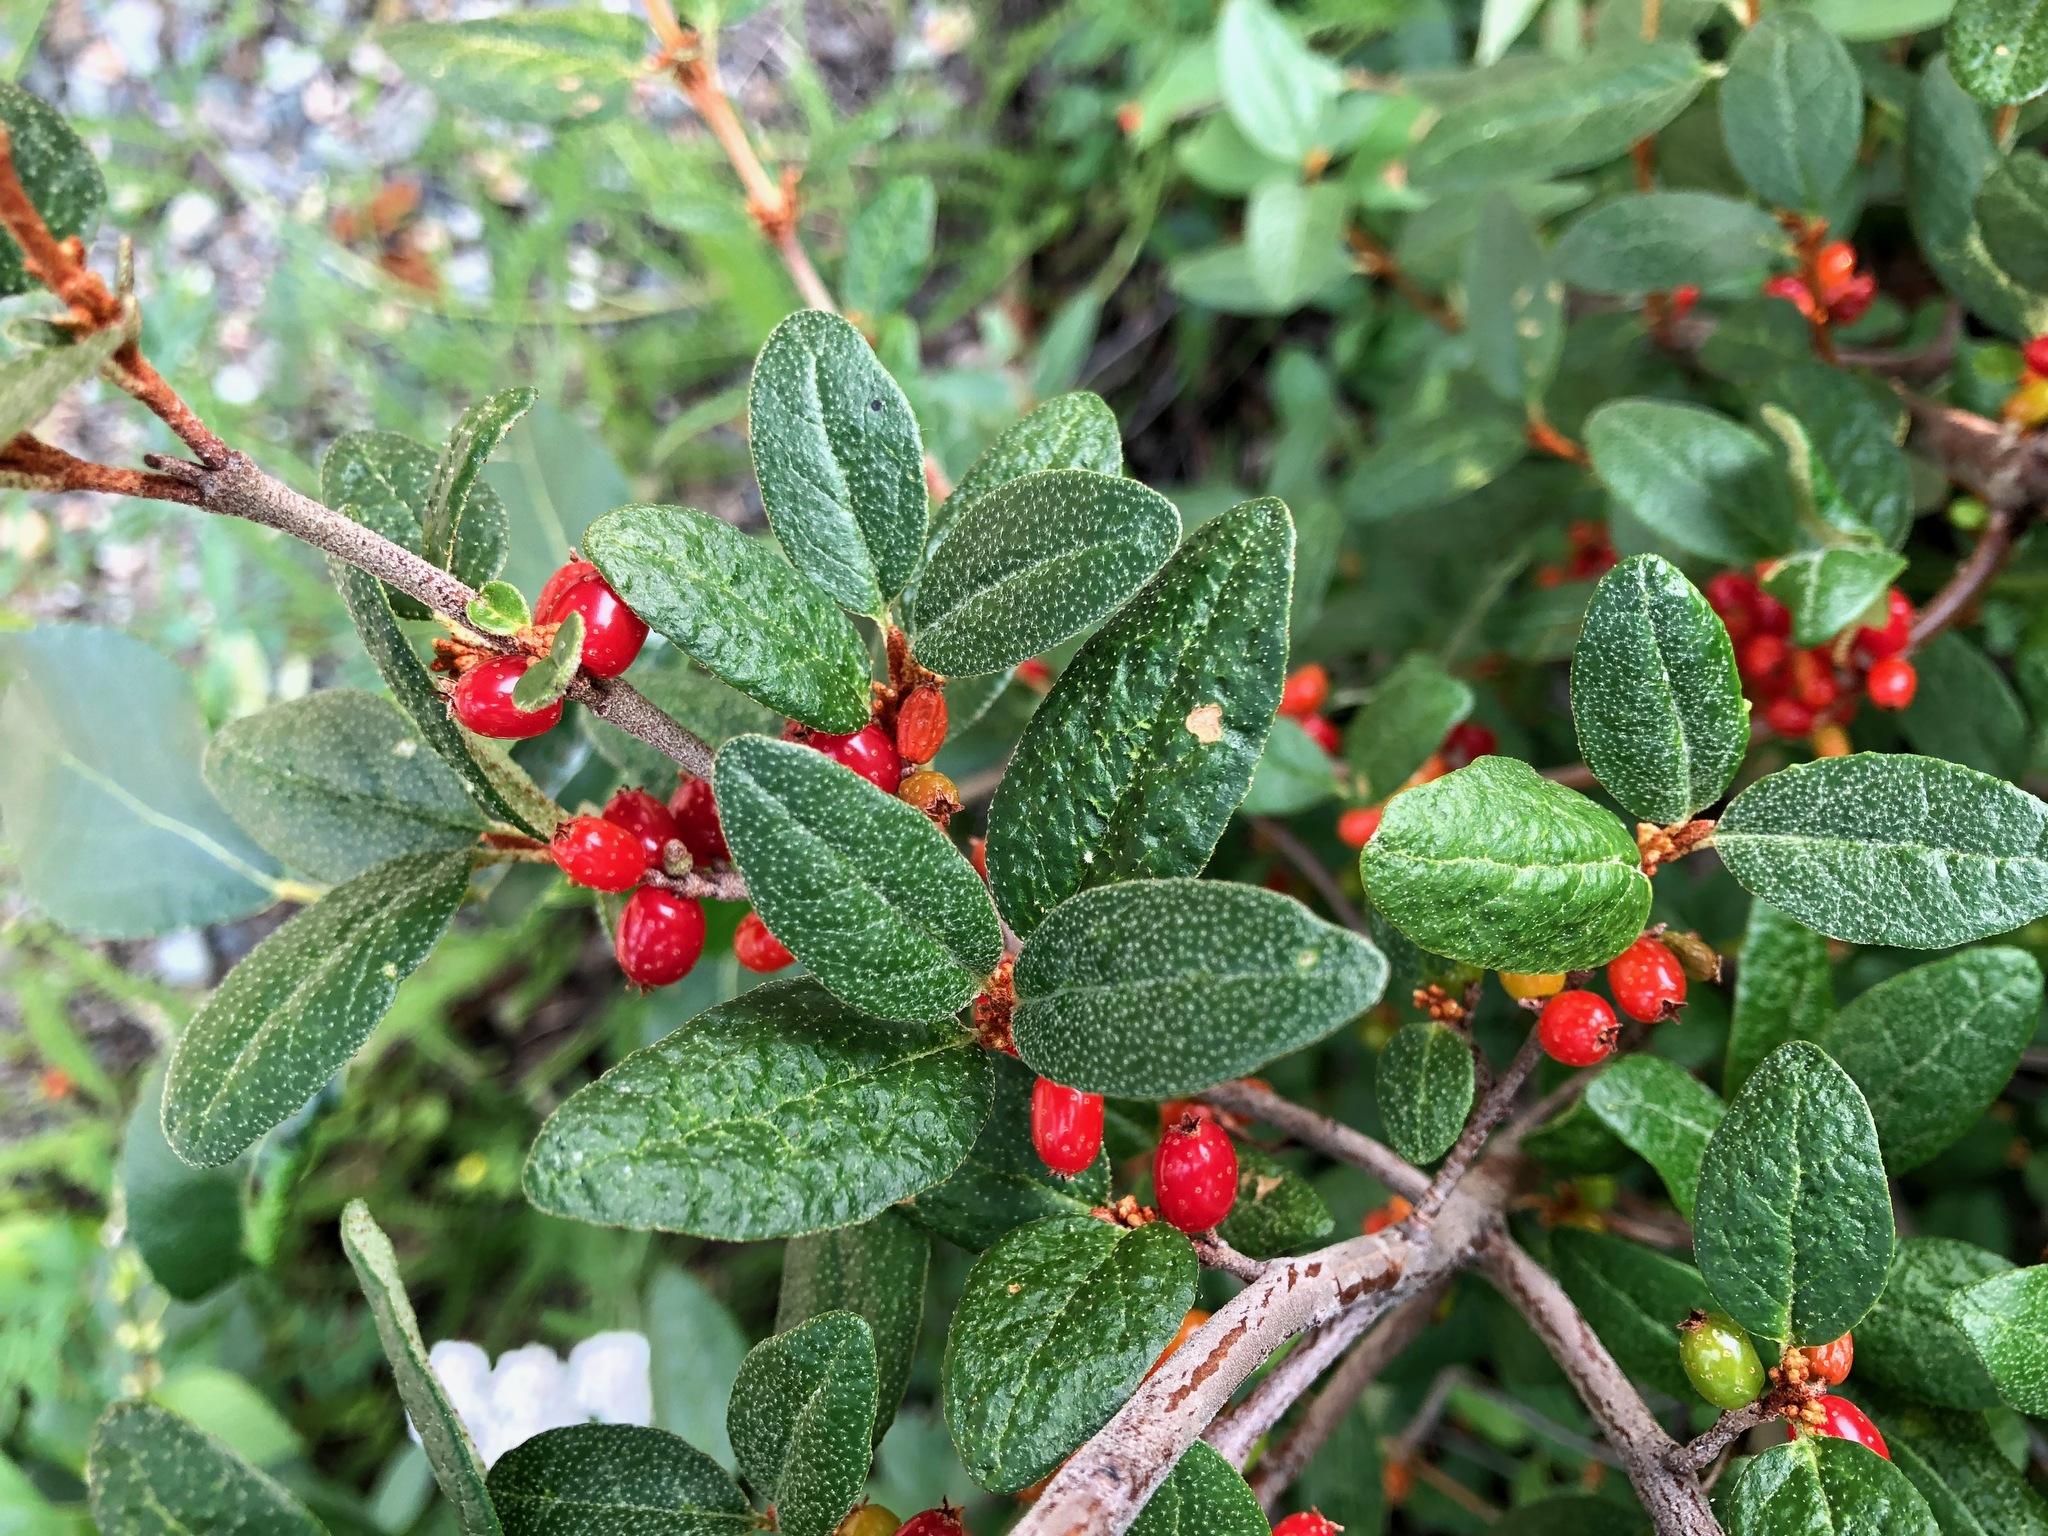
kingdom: Plantae
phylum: Tracheophyta
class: Magnoliopsida
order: Rosales
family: Elaeagnaceae
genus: Shepherdia
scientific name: Shepherdia canadensis
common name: Soapberry
